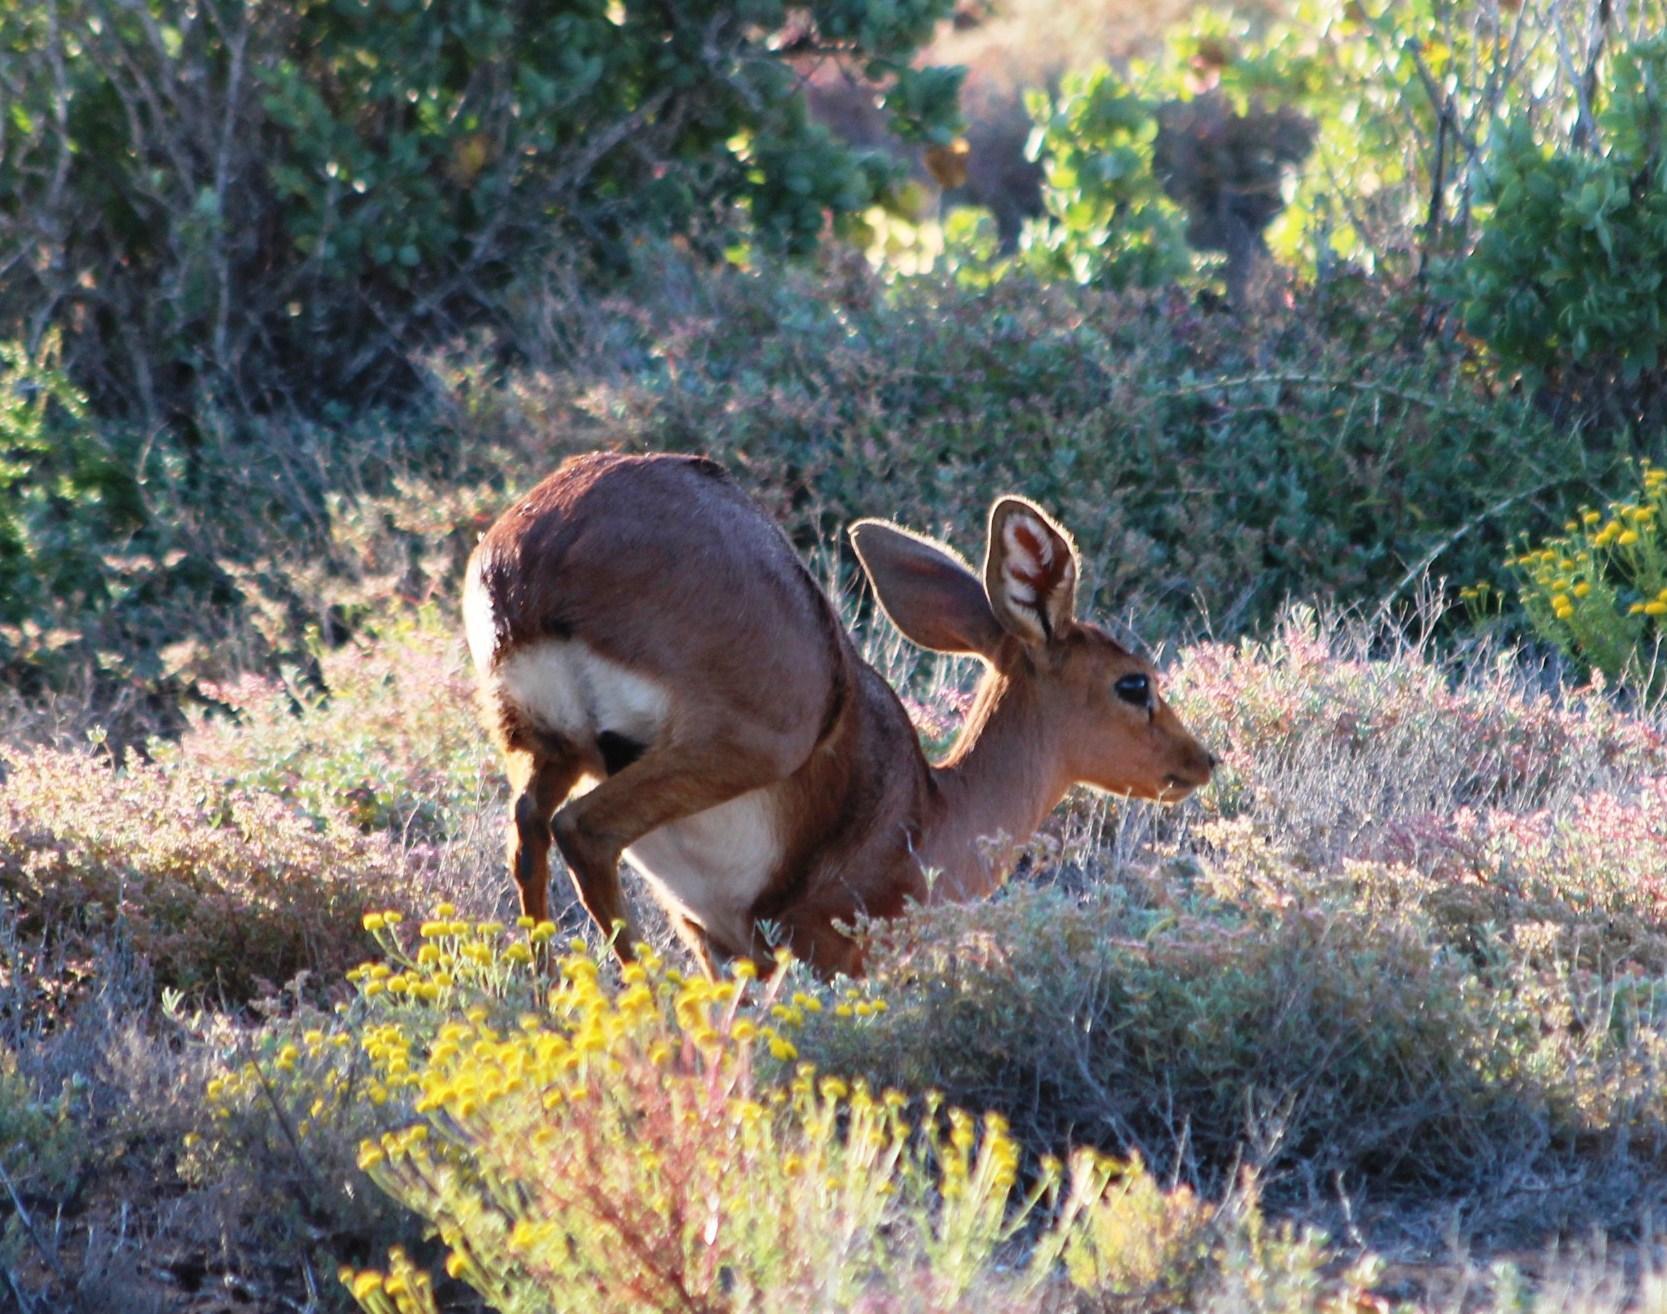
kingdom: Animalia
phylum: Chordata
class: Mammalia
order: Artiodactyla
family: Bovidae
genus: Raphicerus
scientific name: Raphicerus campestris
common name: Steenbok
